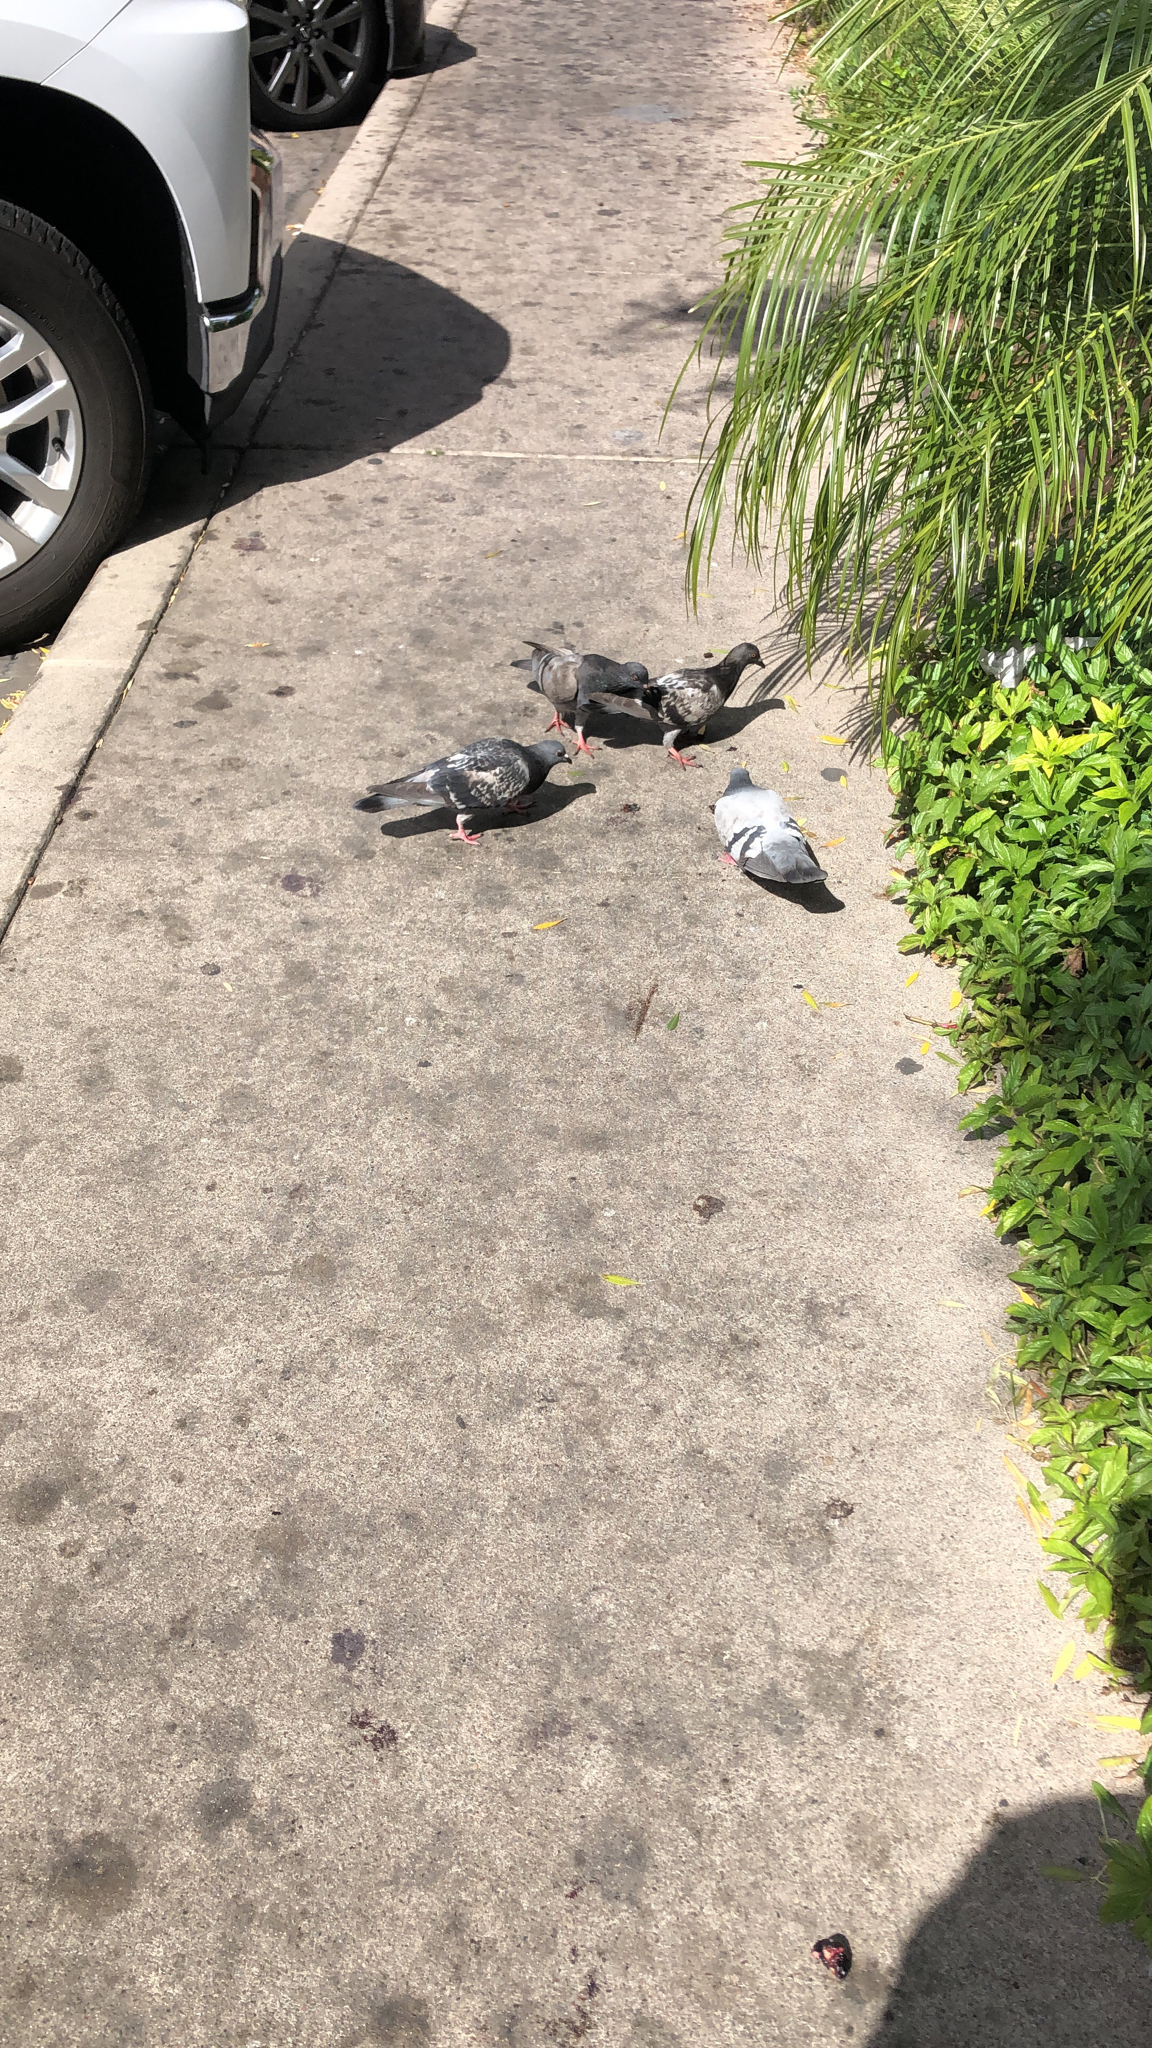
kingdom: Animalia
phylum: Chordata
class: Aves
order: Columbiformes
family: Columbidae
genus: Columba
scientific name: Columba livia
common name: Rock pigeon
